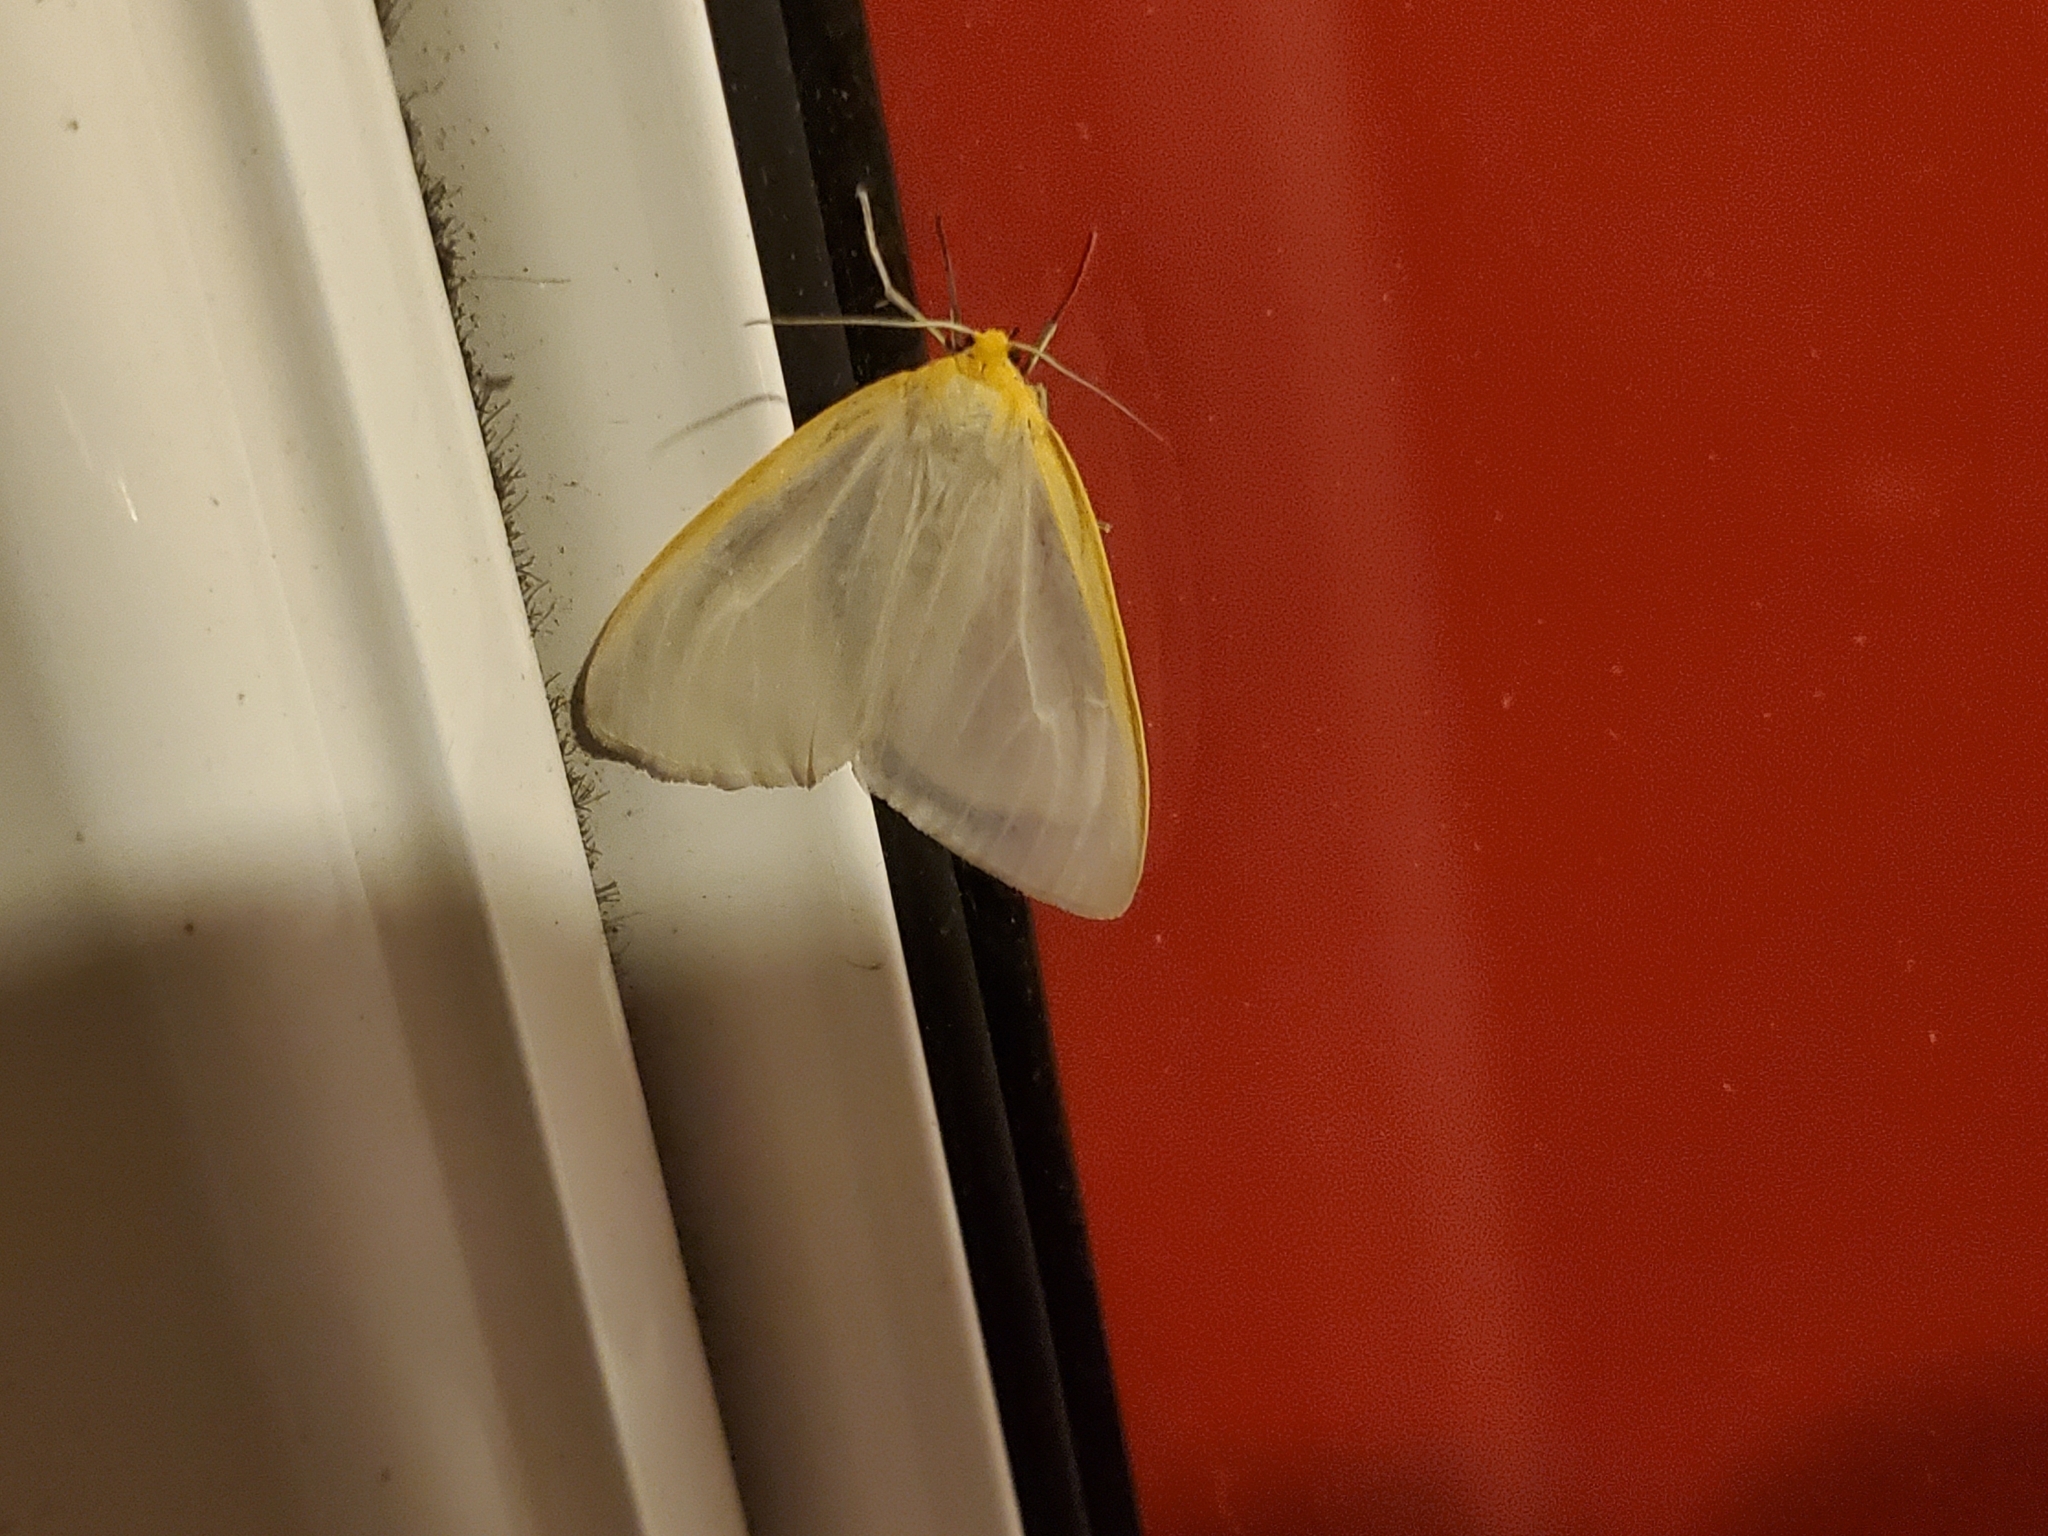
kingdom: Animalia
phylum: Arthropoda
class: Insecta
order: Lepidoptera
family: Erebidae
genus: Cycnia
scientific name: Cycnia tenera
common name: Delicate cycnia moth
